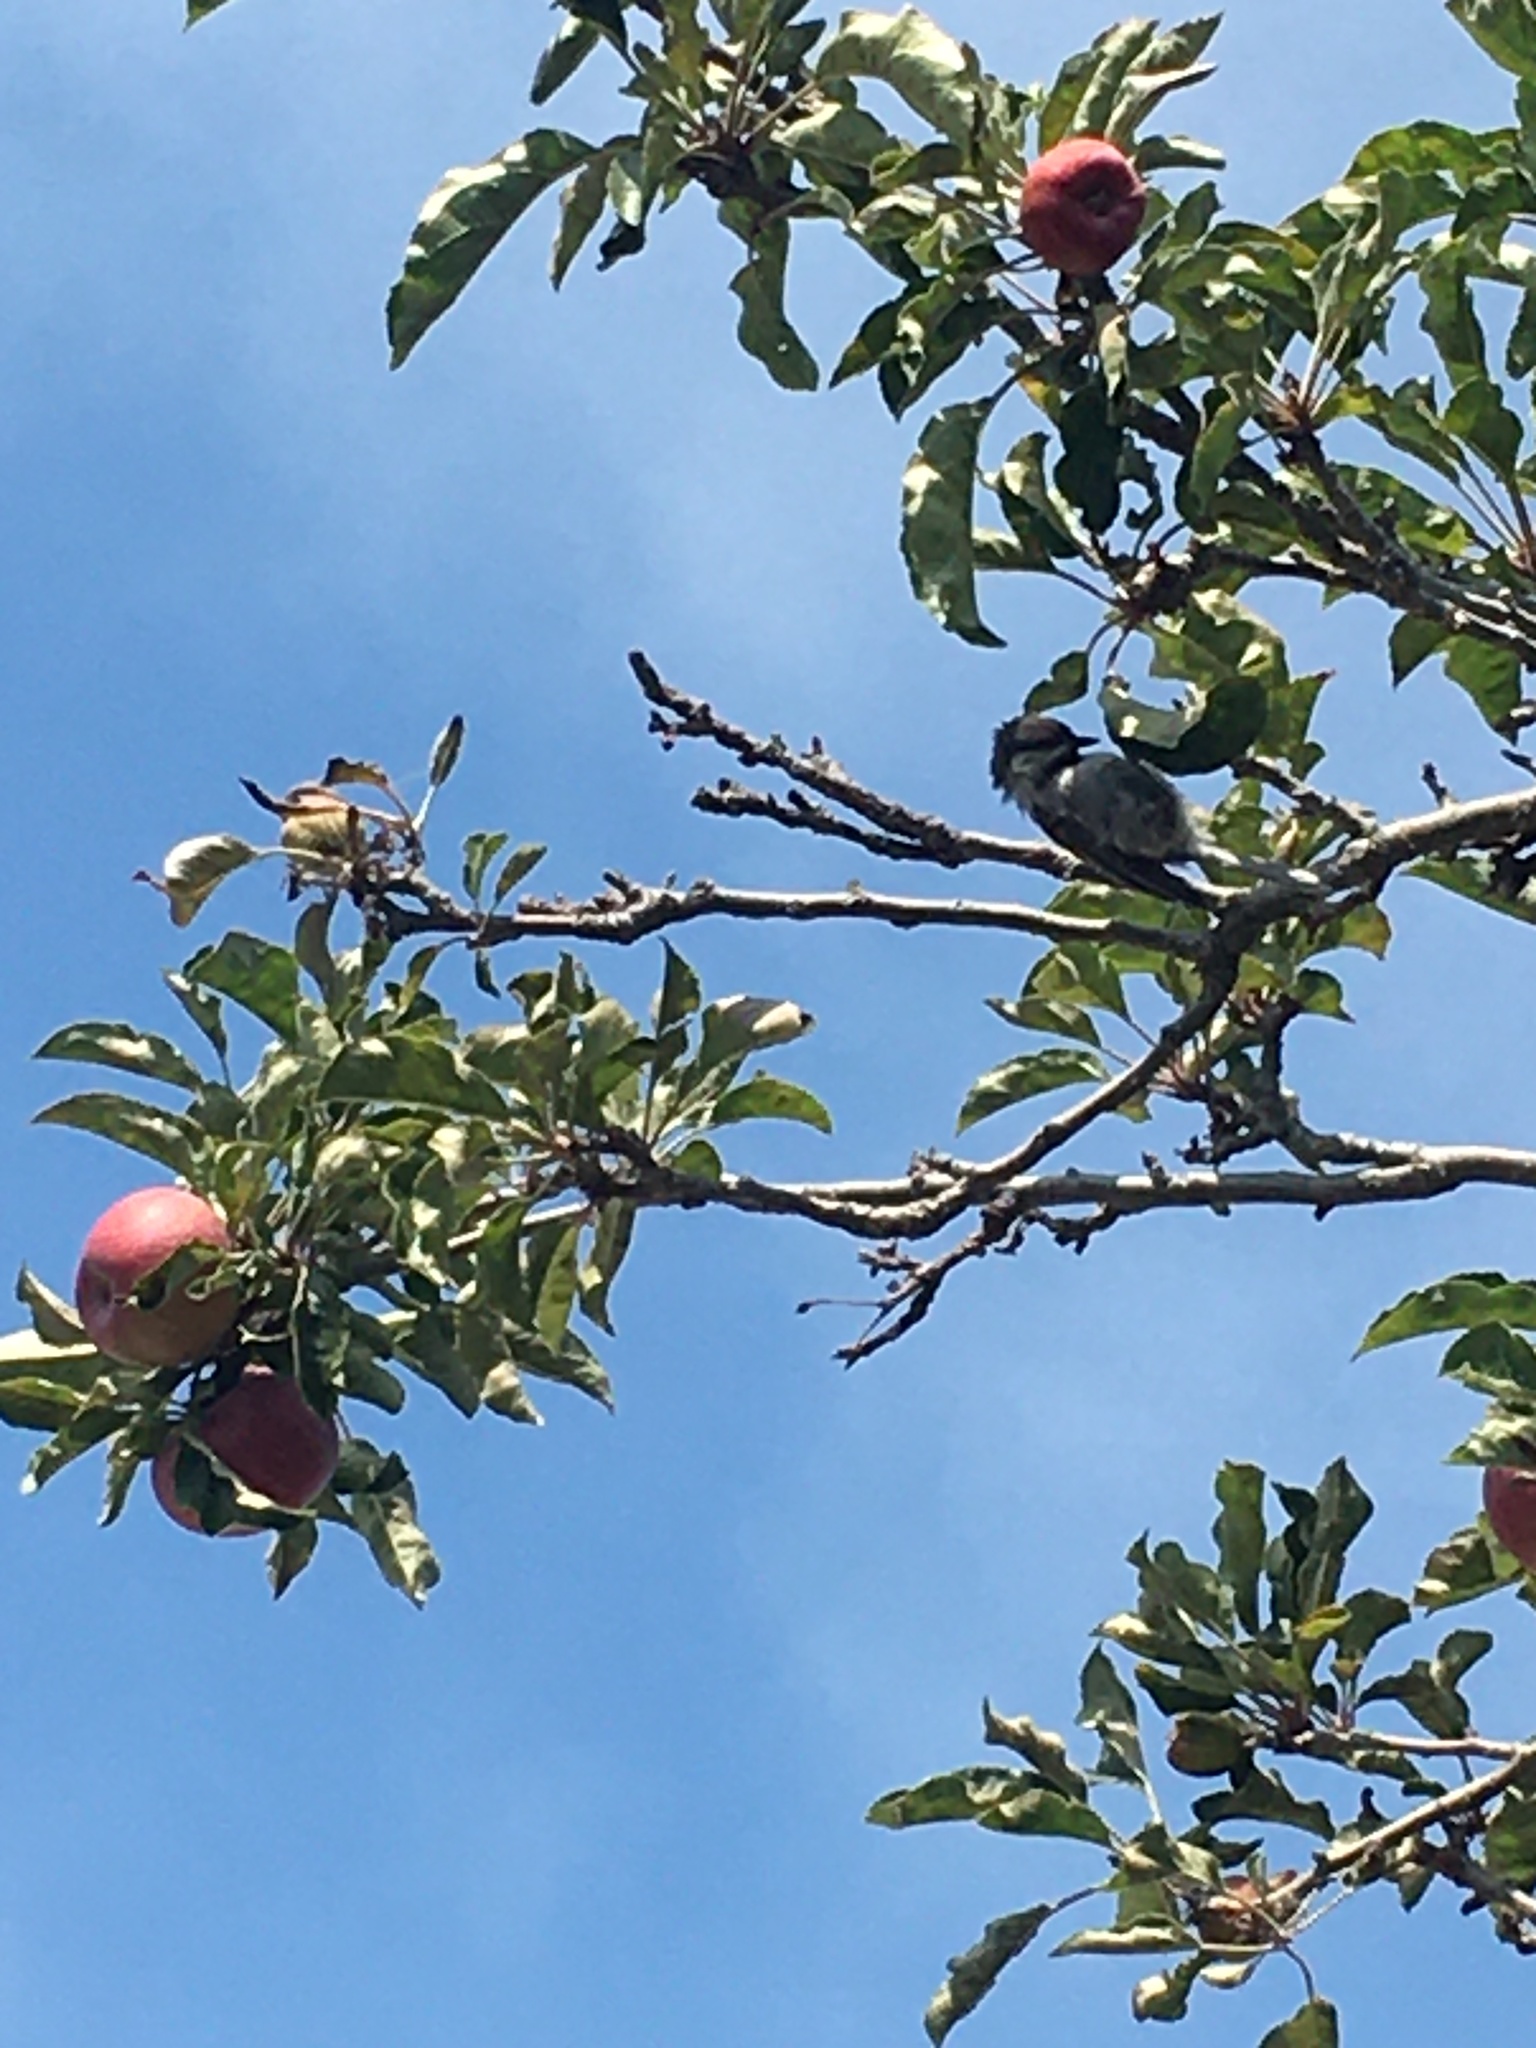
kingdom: Animalia
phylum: Chordata
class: Aves
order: Passeriformes
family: Paridae
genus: Poecile
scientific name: Poecile rufescens
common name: Chestnut-backed chickadee
